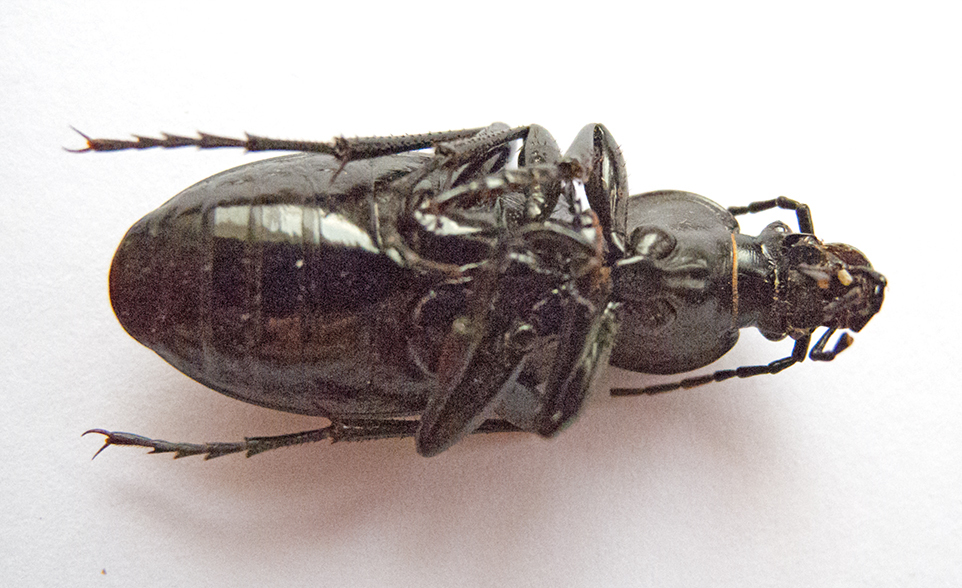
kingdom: Animalia
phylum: Arthropoda
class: Insecta
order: Coleoptera
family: Carabidae
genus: Carabus
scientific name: Carabus coriaceus
